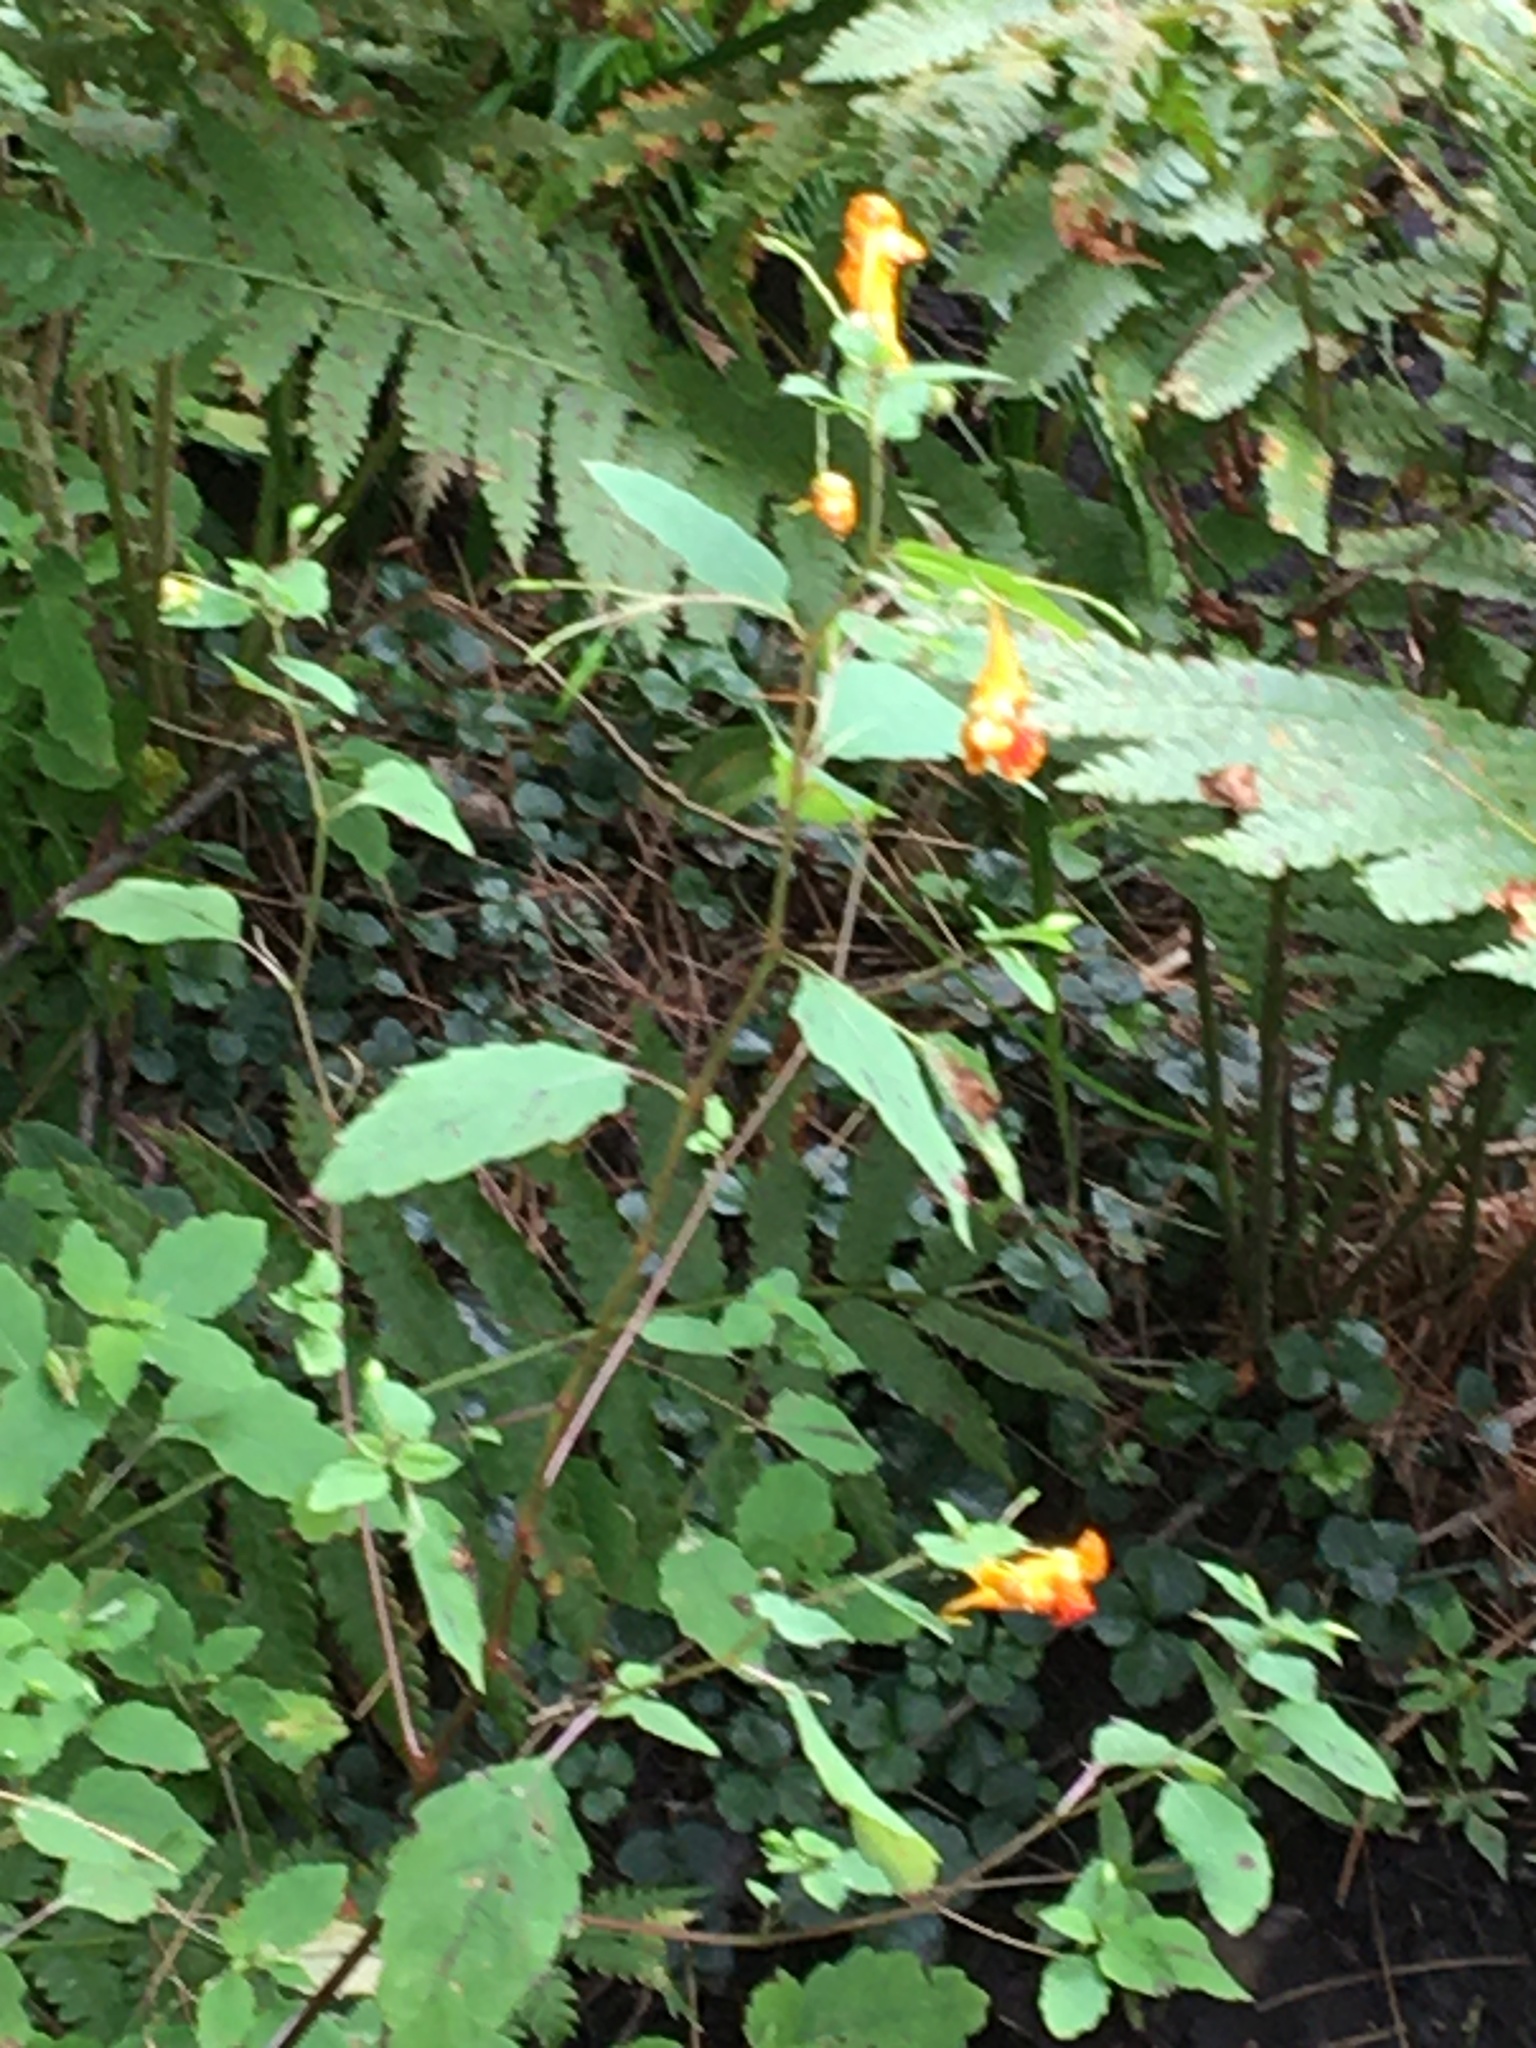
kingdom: Plantae
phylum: Tracheophyta
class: Magnoliopsida
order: Ericales
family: Balsaminaceae
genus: Impatiens
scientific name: Impatiens capensis
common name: Orange balsam
